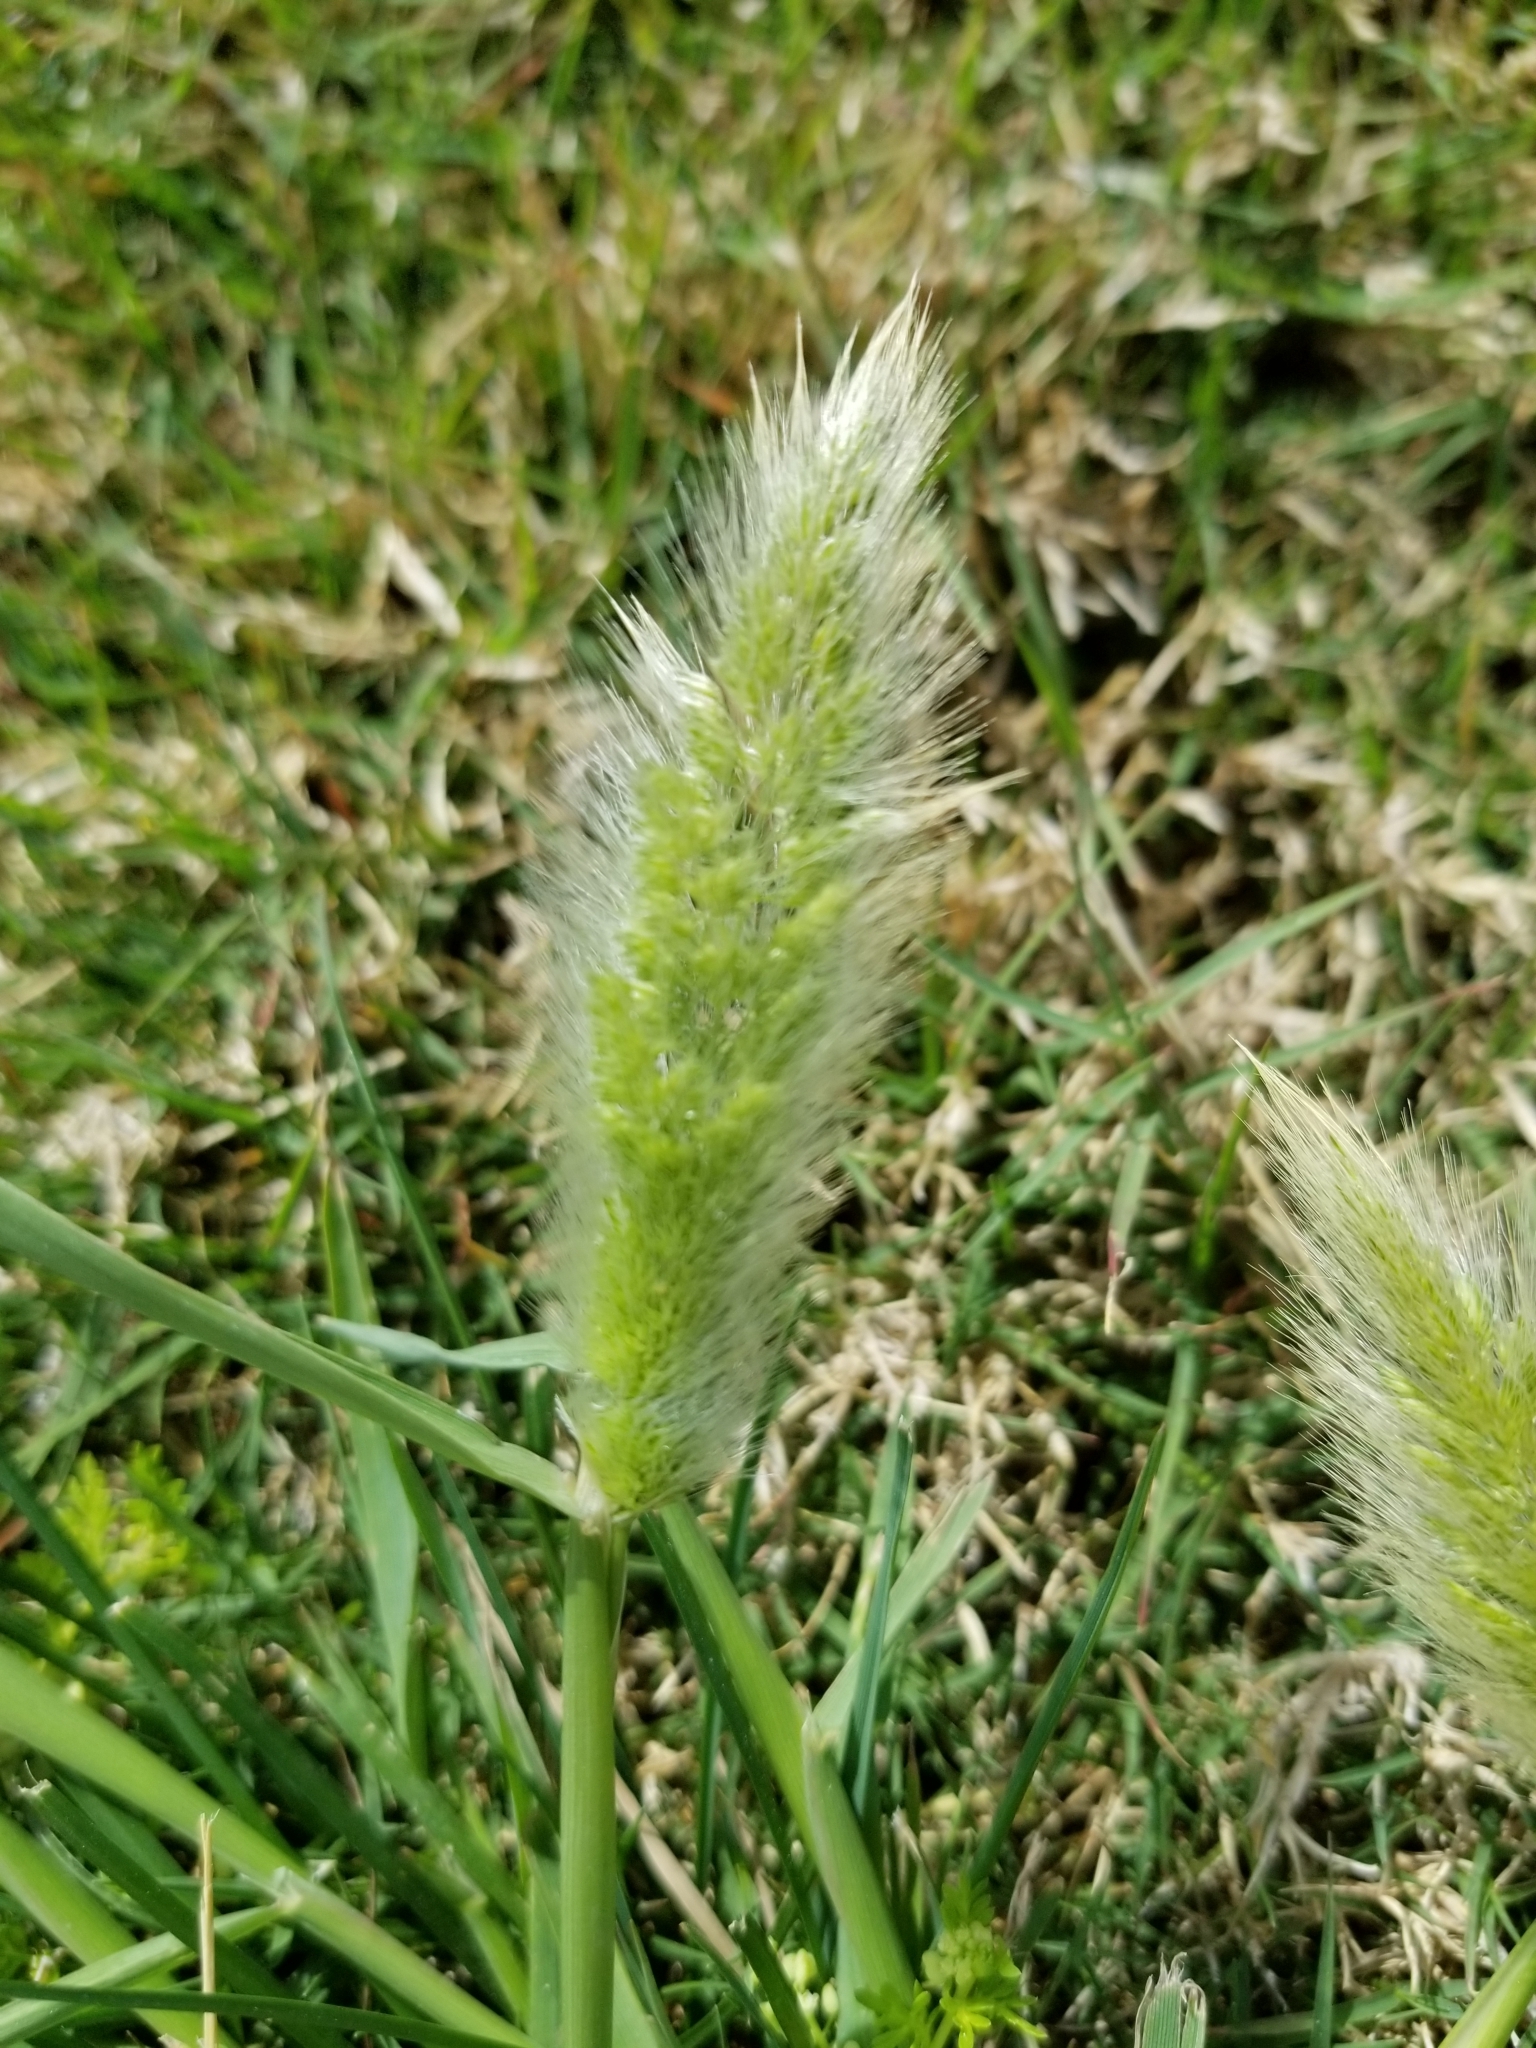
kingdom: Plantae
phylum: Tracheophyta
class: Liliopsida
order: Poales
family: Poaceae
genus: Polypogon
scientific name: Polypogon monspeliensis
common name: Annual rabbitsfoot grass
